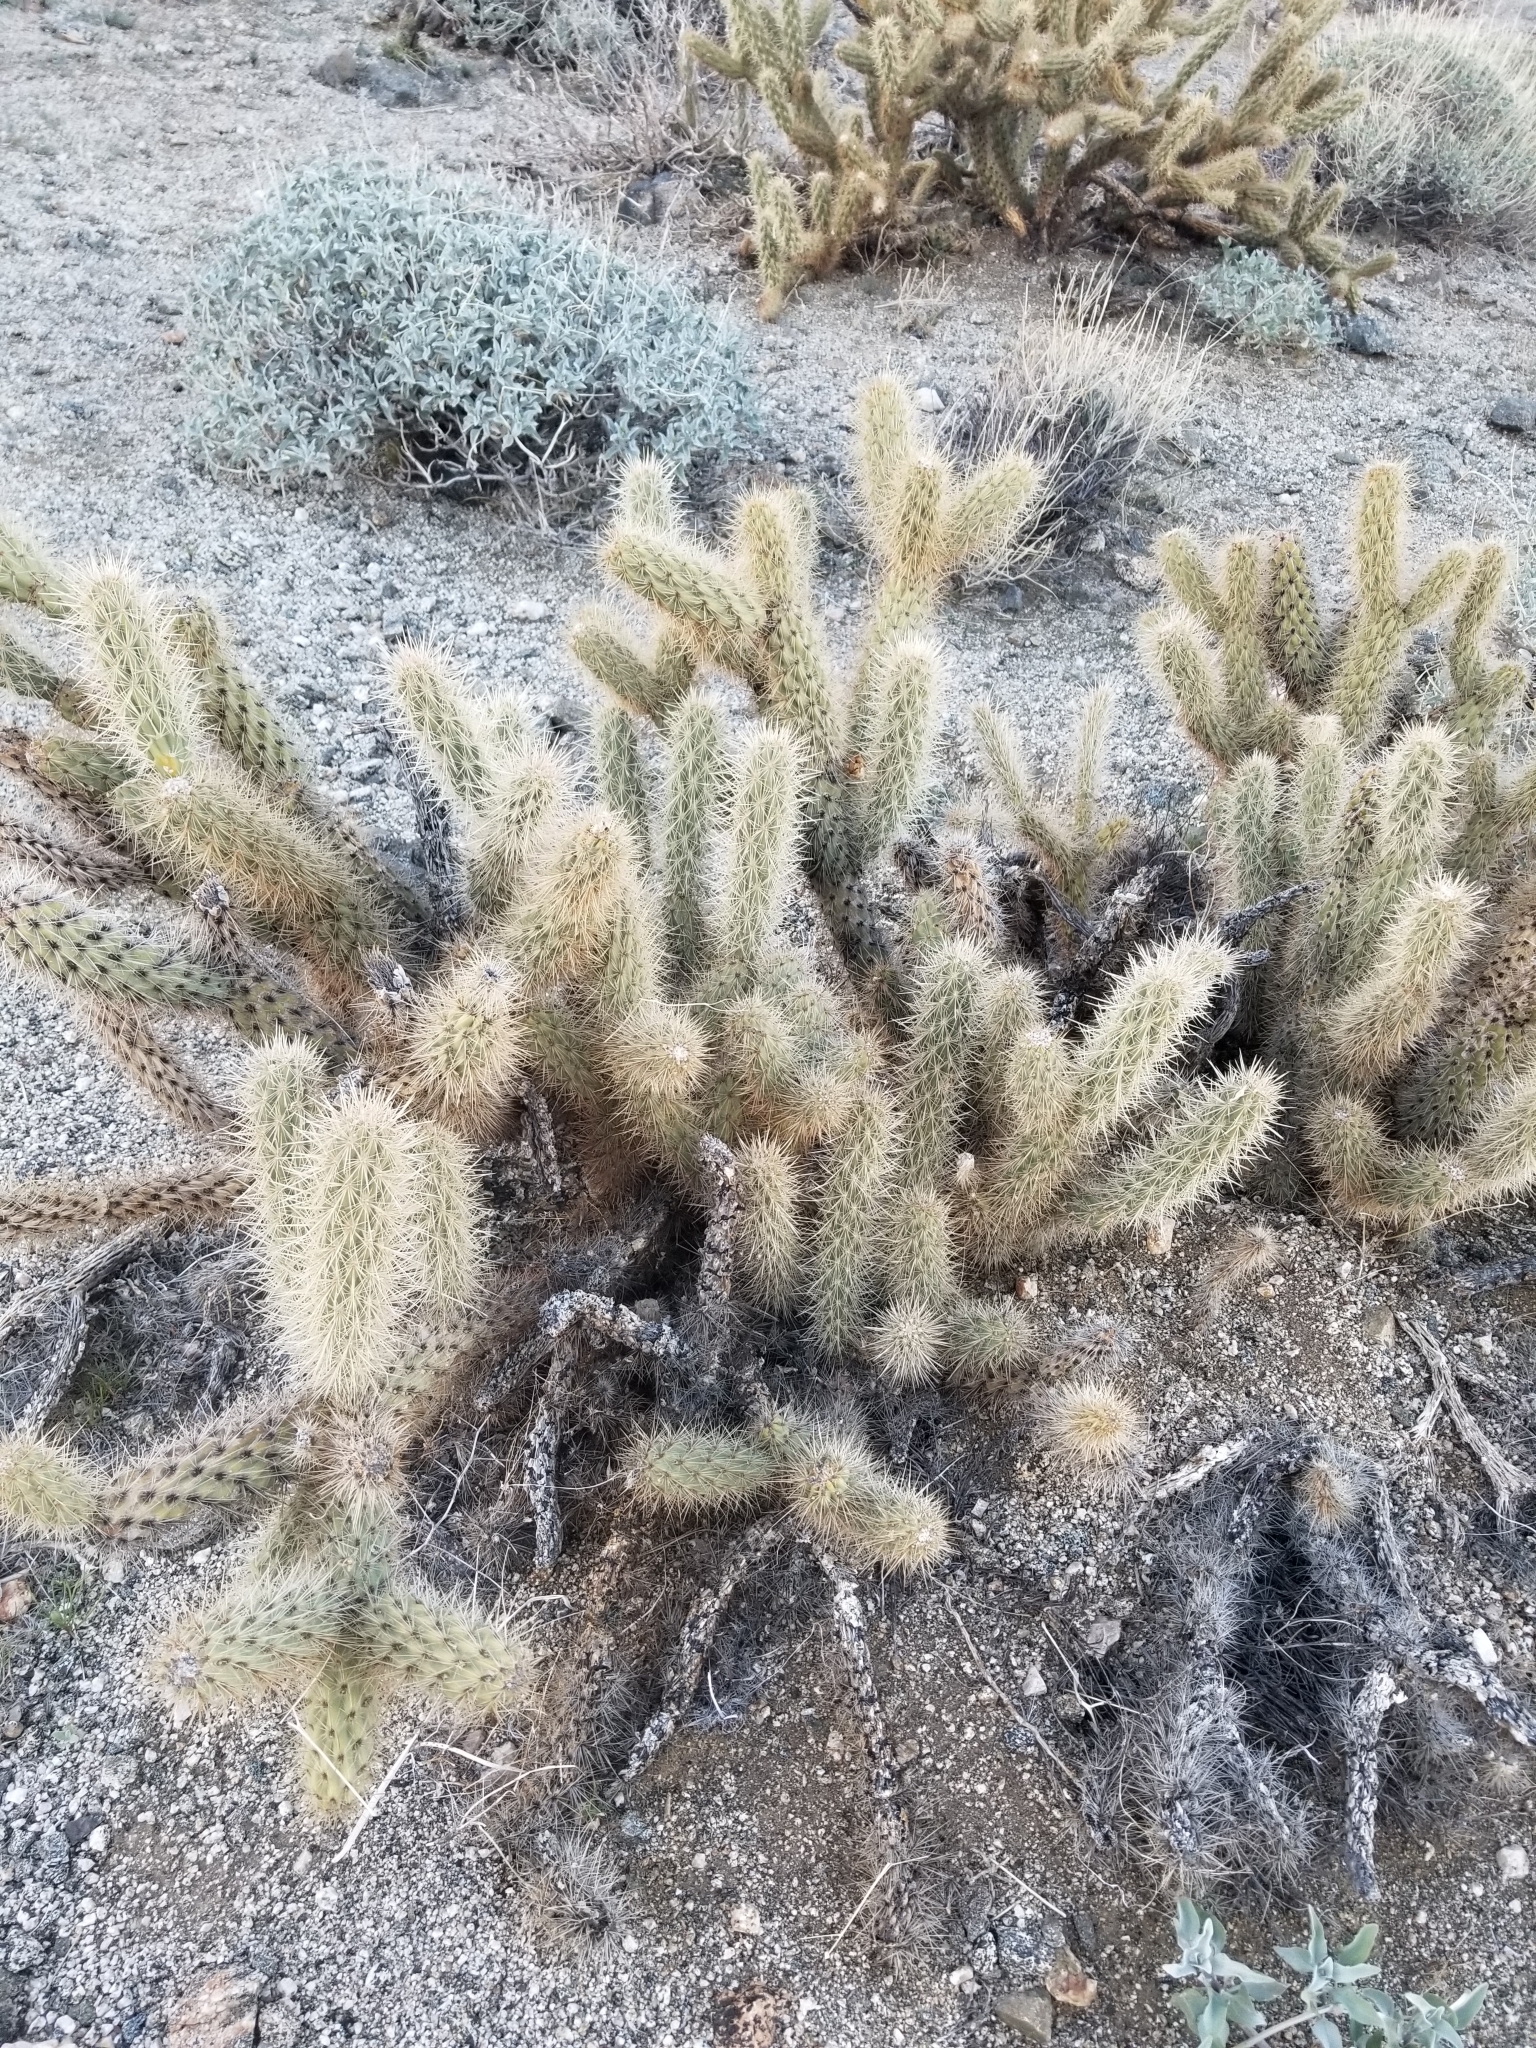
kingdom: Plantae
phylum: Tracheophyta
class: Magnoliopsida
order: Caryophyllales
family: Cactaceae
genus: Cylindropuntia
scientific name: Cylindropuntia ganderi
